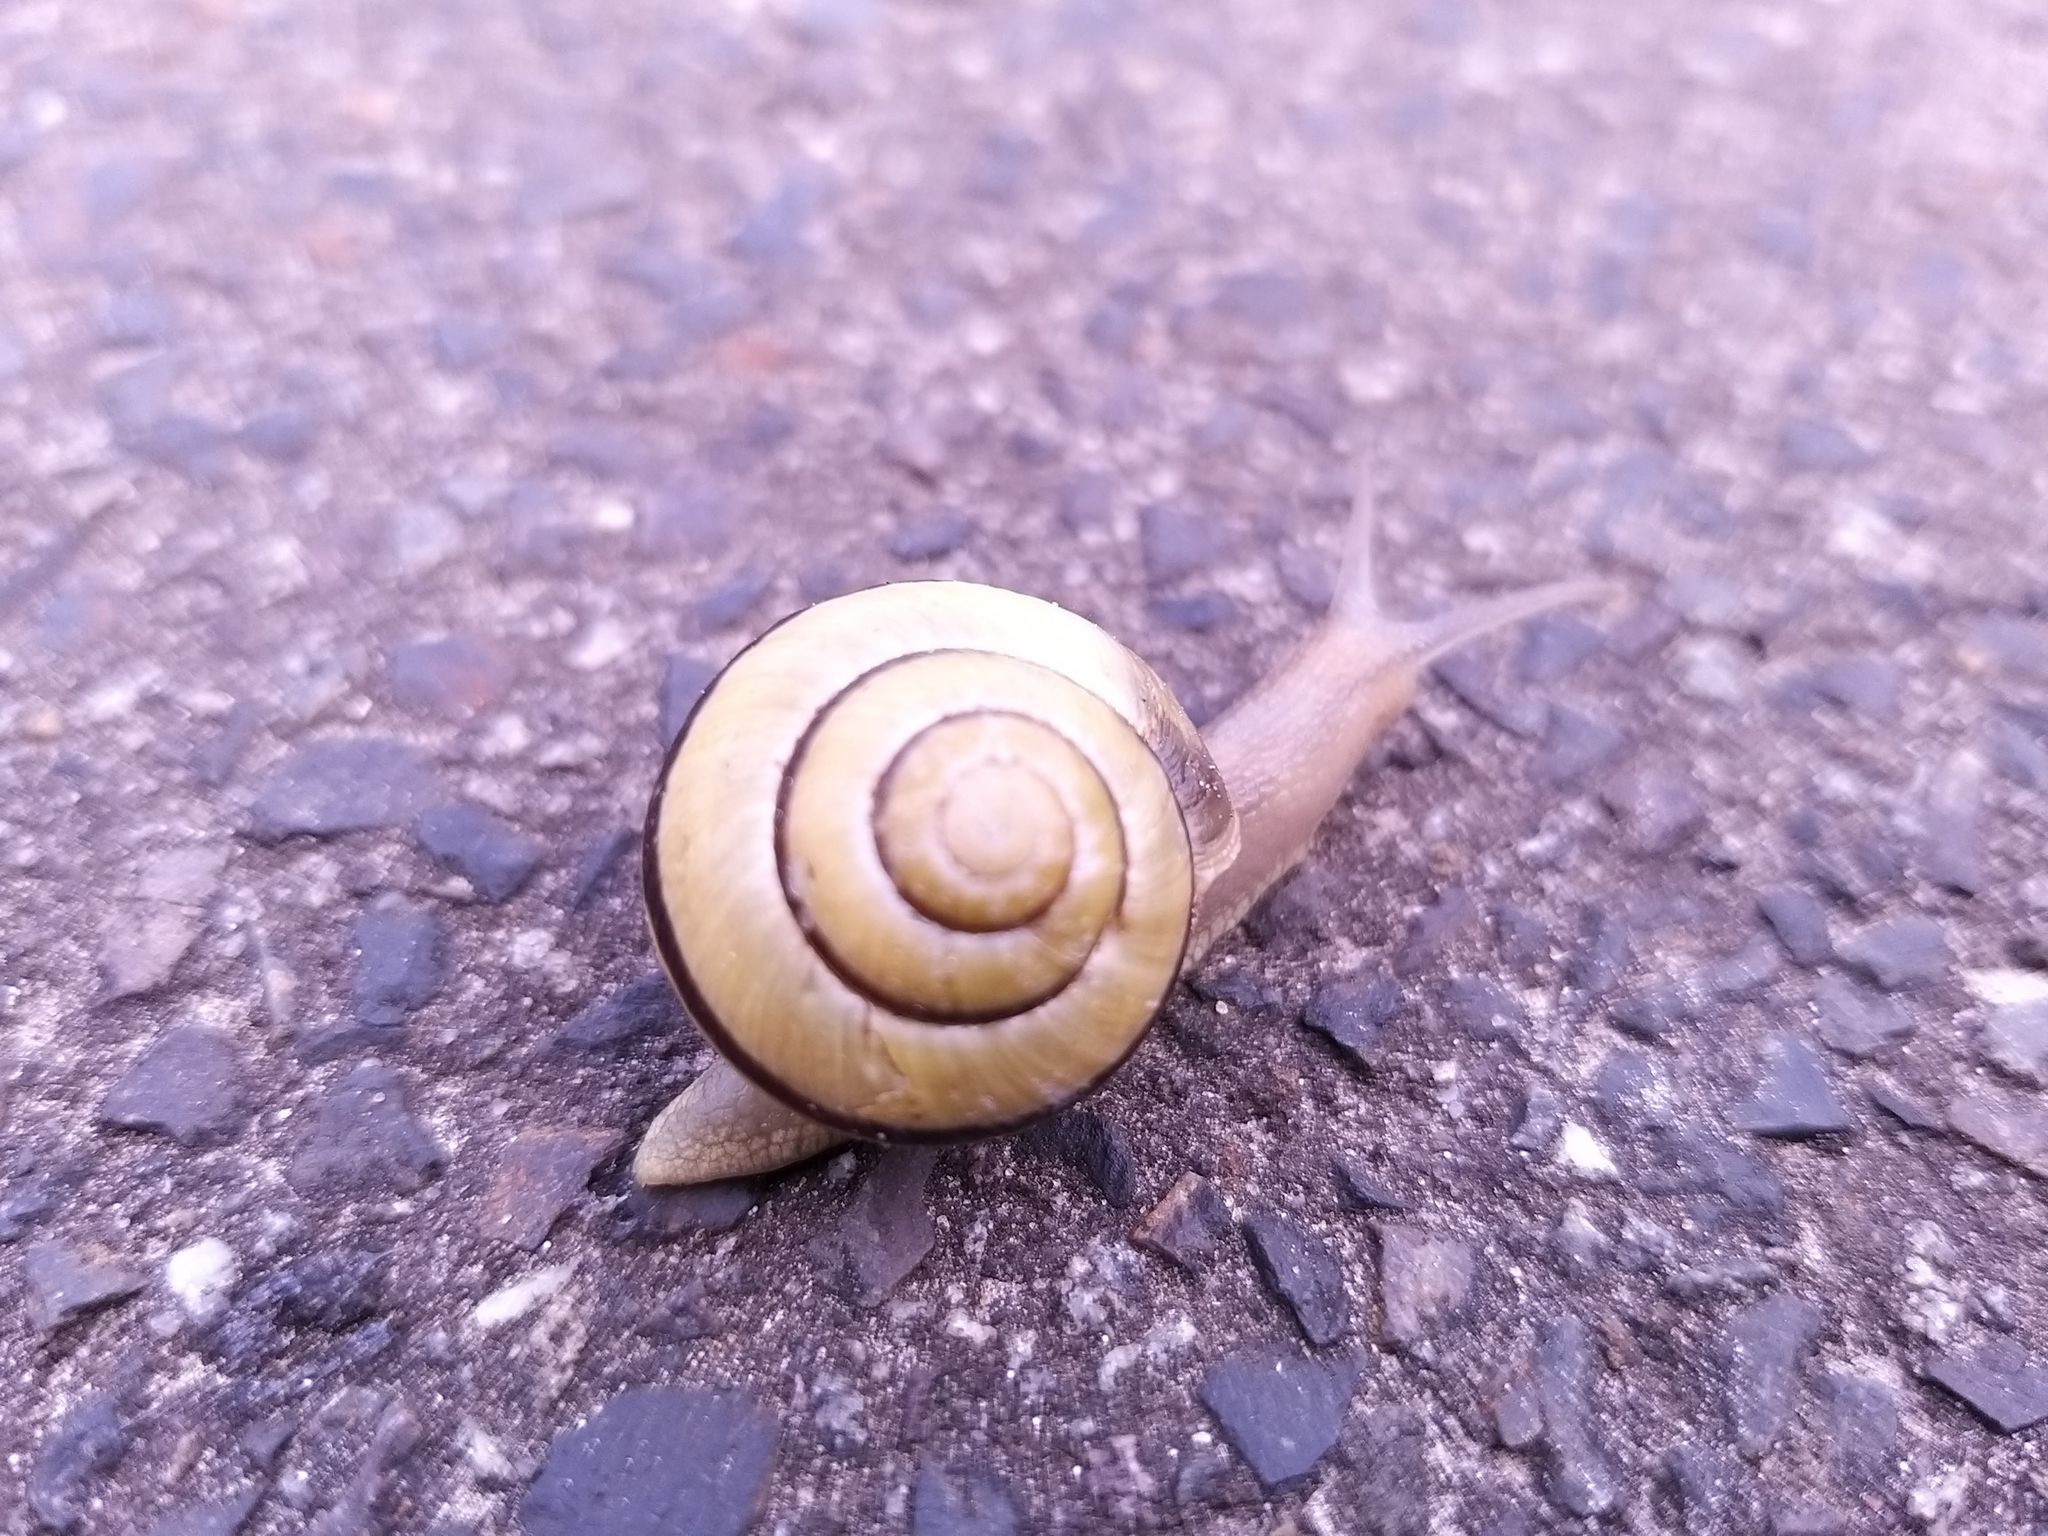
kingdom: Animalia
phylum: Mollusca
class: Gastropoda
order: Stylommatophora
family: Helicidae
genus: Cepaea
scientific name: Cepaea nemoralis
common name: Grovesnail
